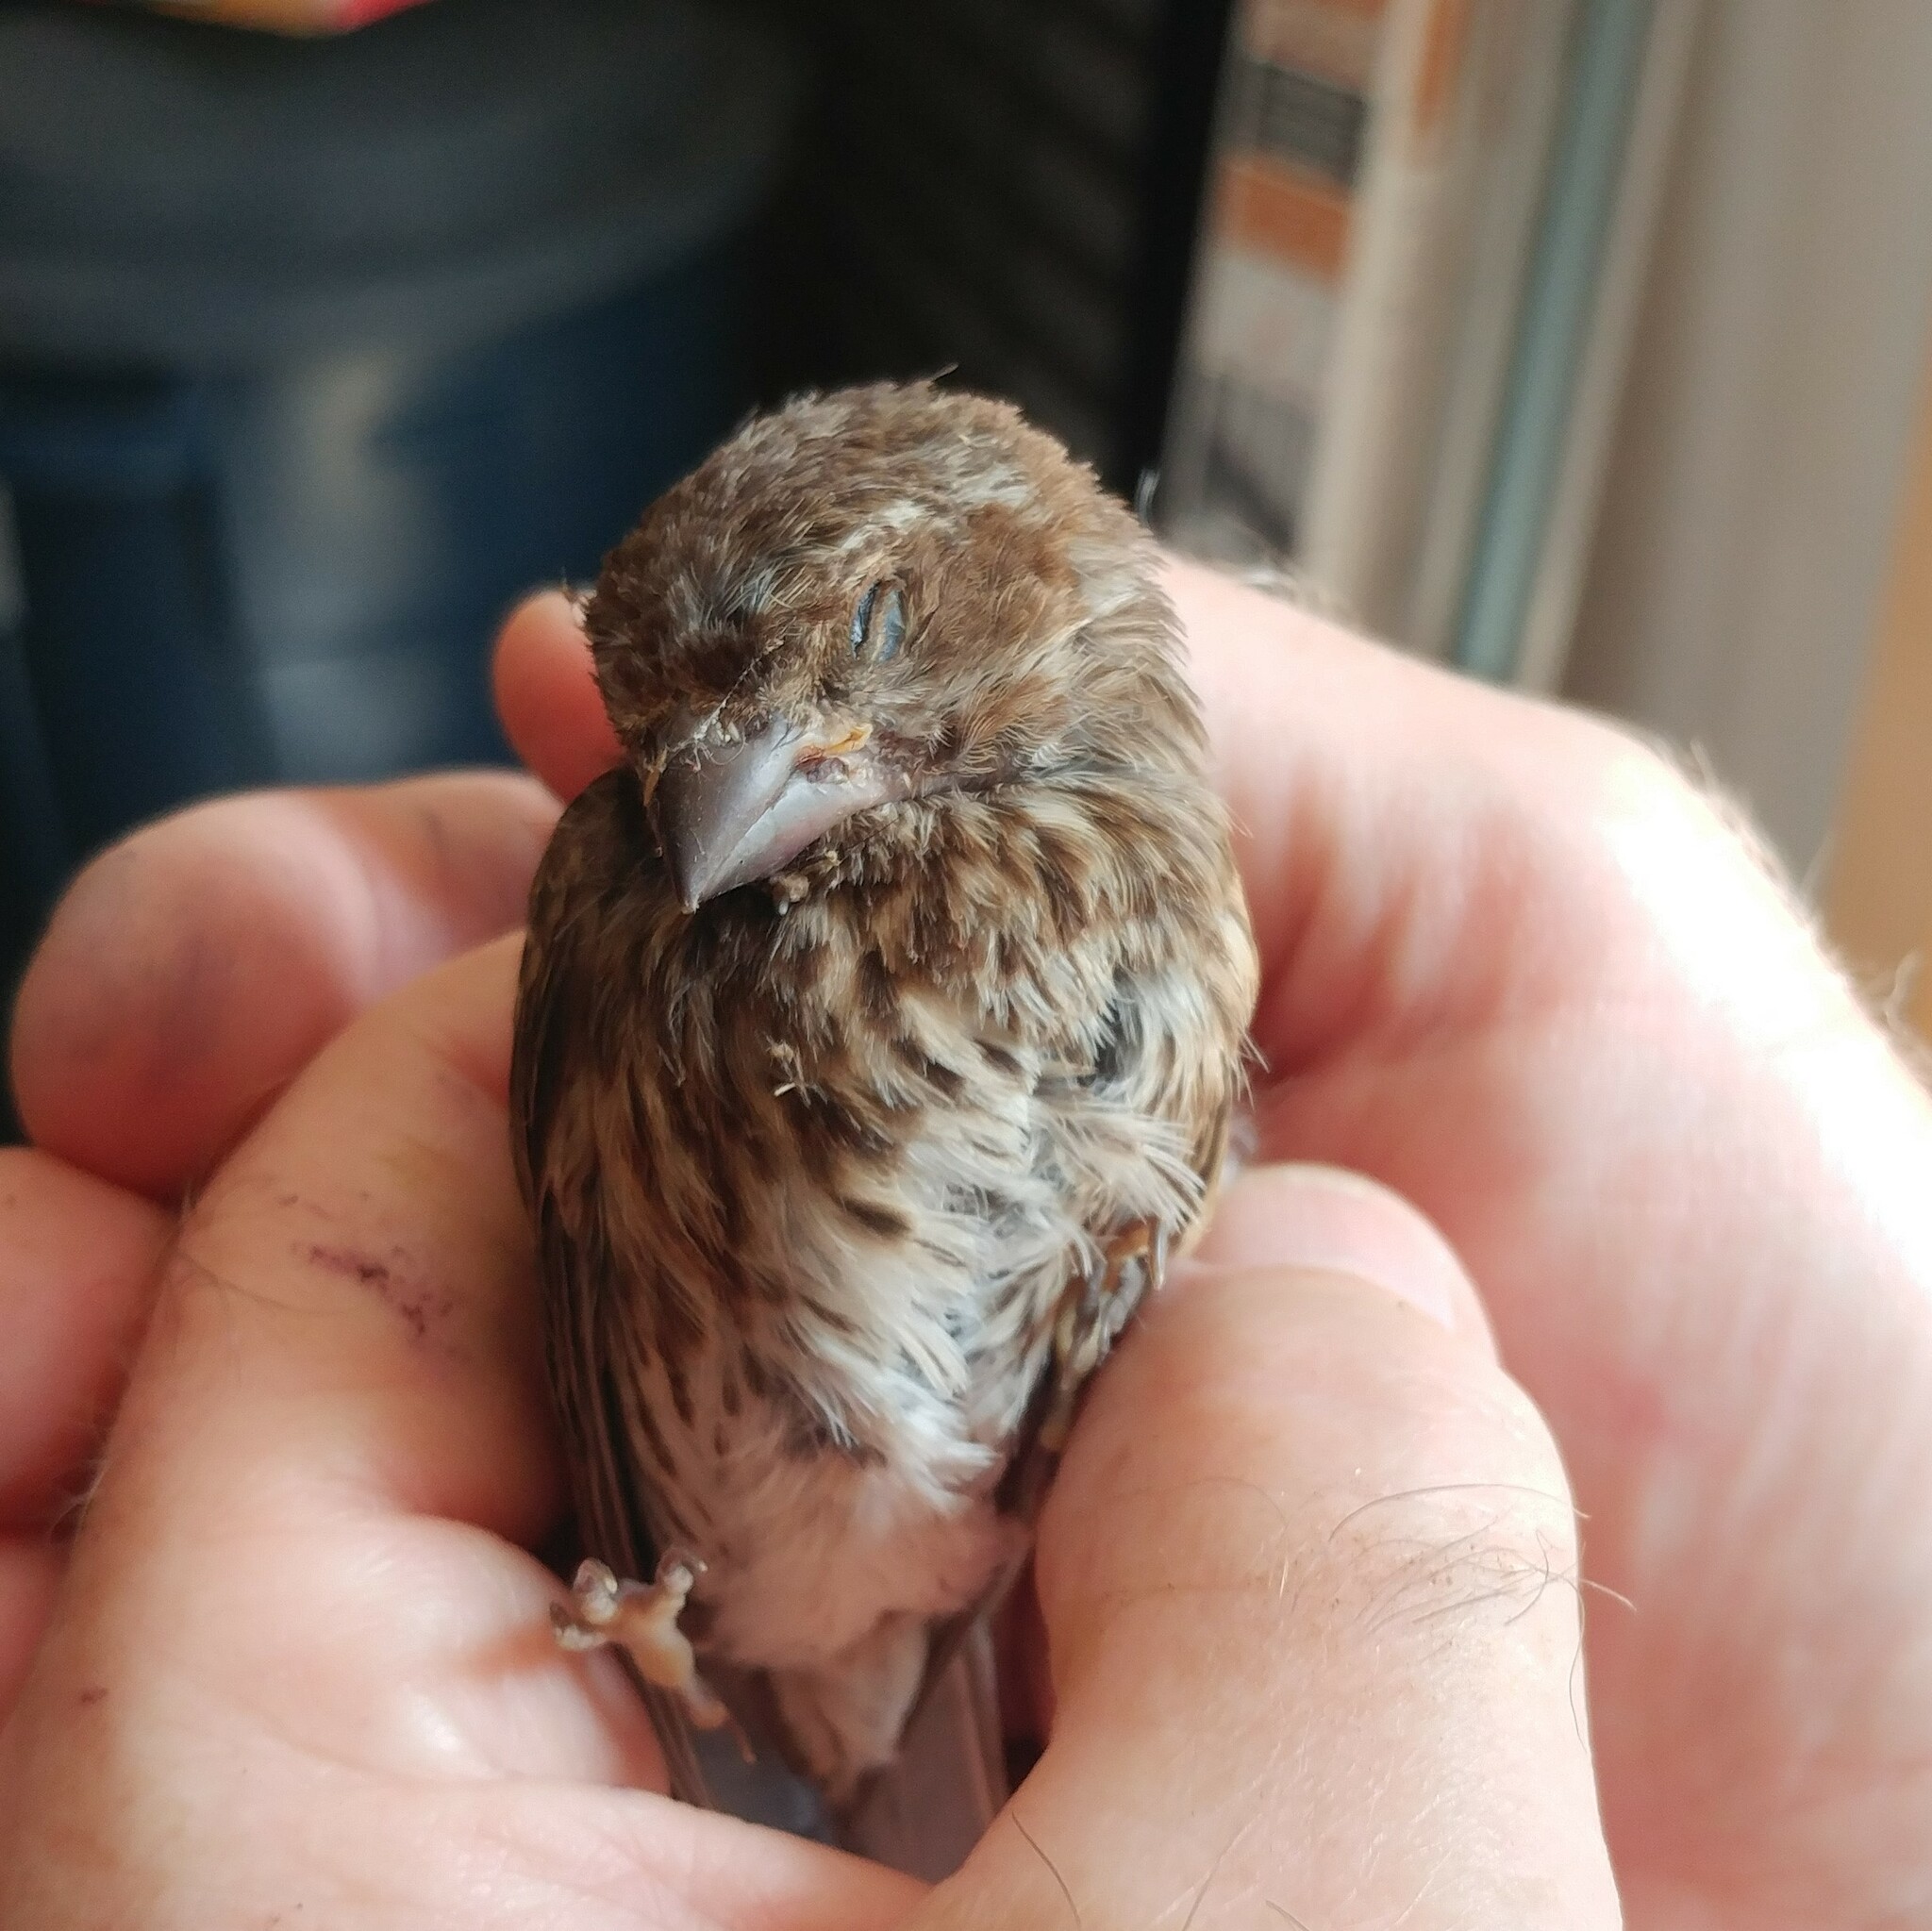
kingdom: Animalia
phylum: Chordata
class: Aves
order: Passeriformes
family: Fringillidae
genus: Haemorhous
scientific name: Haemorhous purpureus
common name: Purple finch
